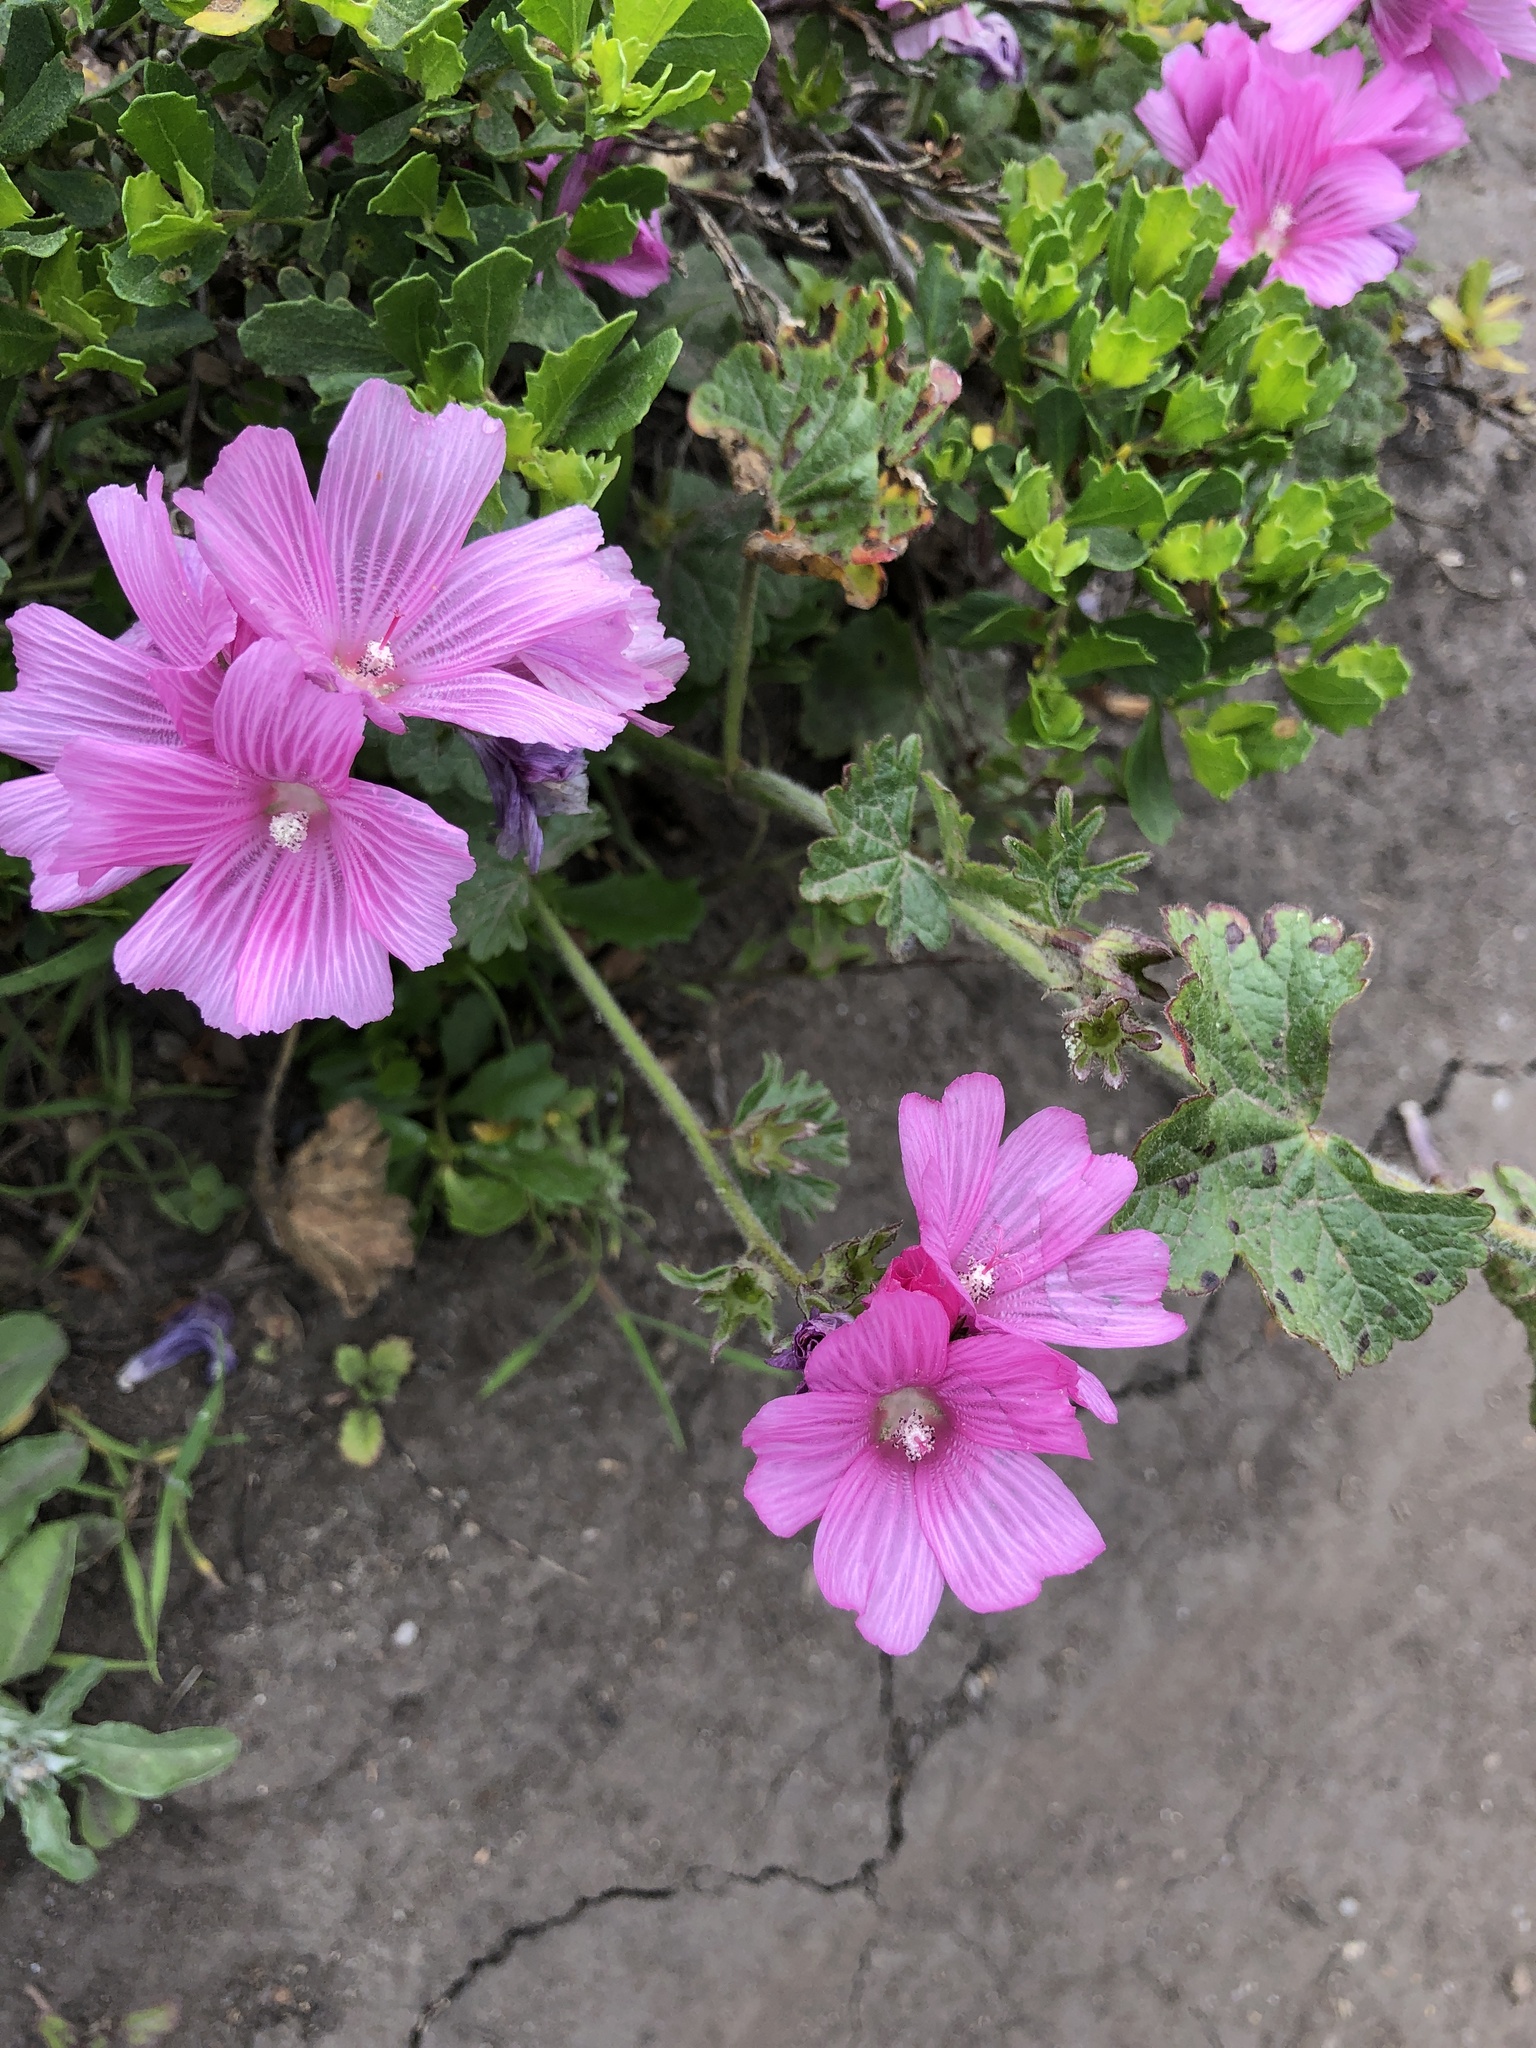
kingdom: Plantae
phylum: Tracheophyta
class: Magnoliopsida
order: Malvales
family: Malvaceae
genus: Sidalcea
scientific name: Sidalcea malviflora
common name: Greek mallow
